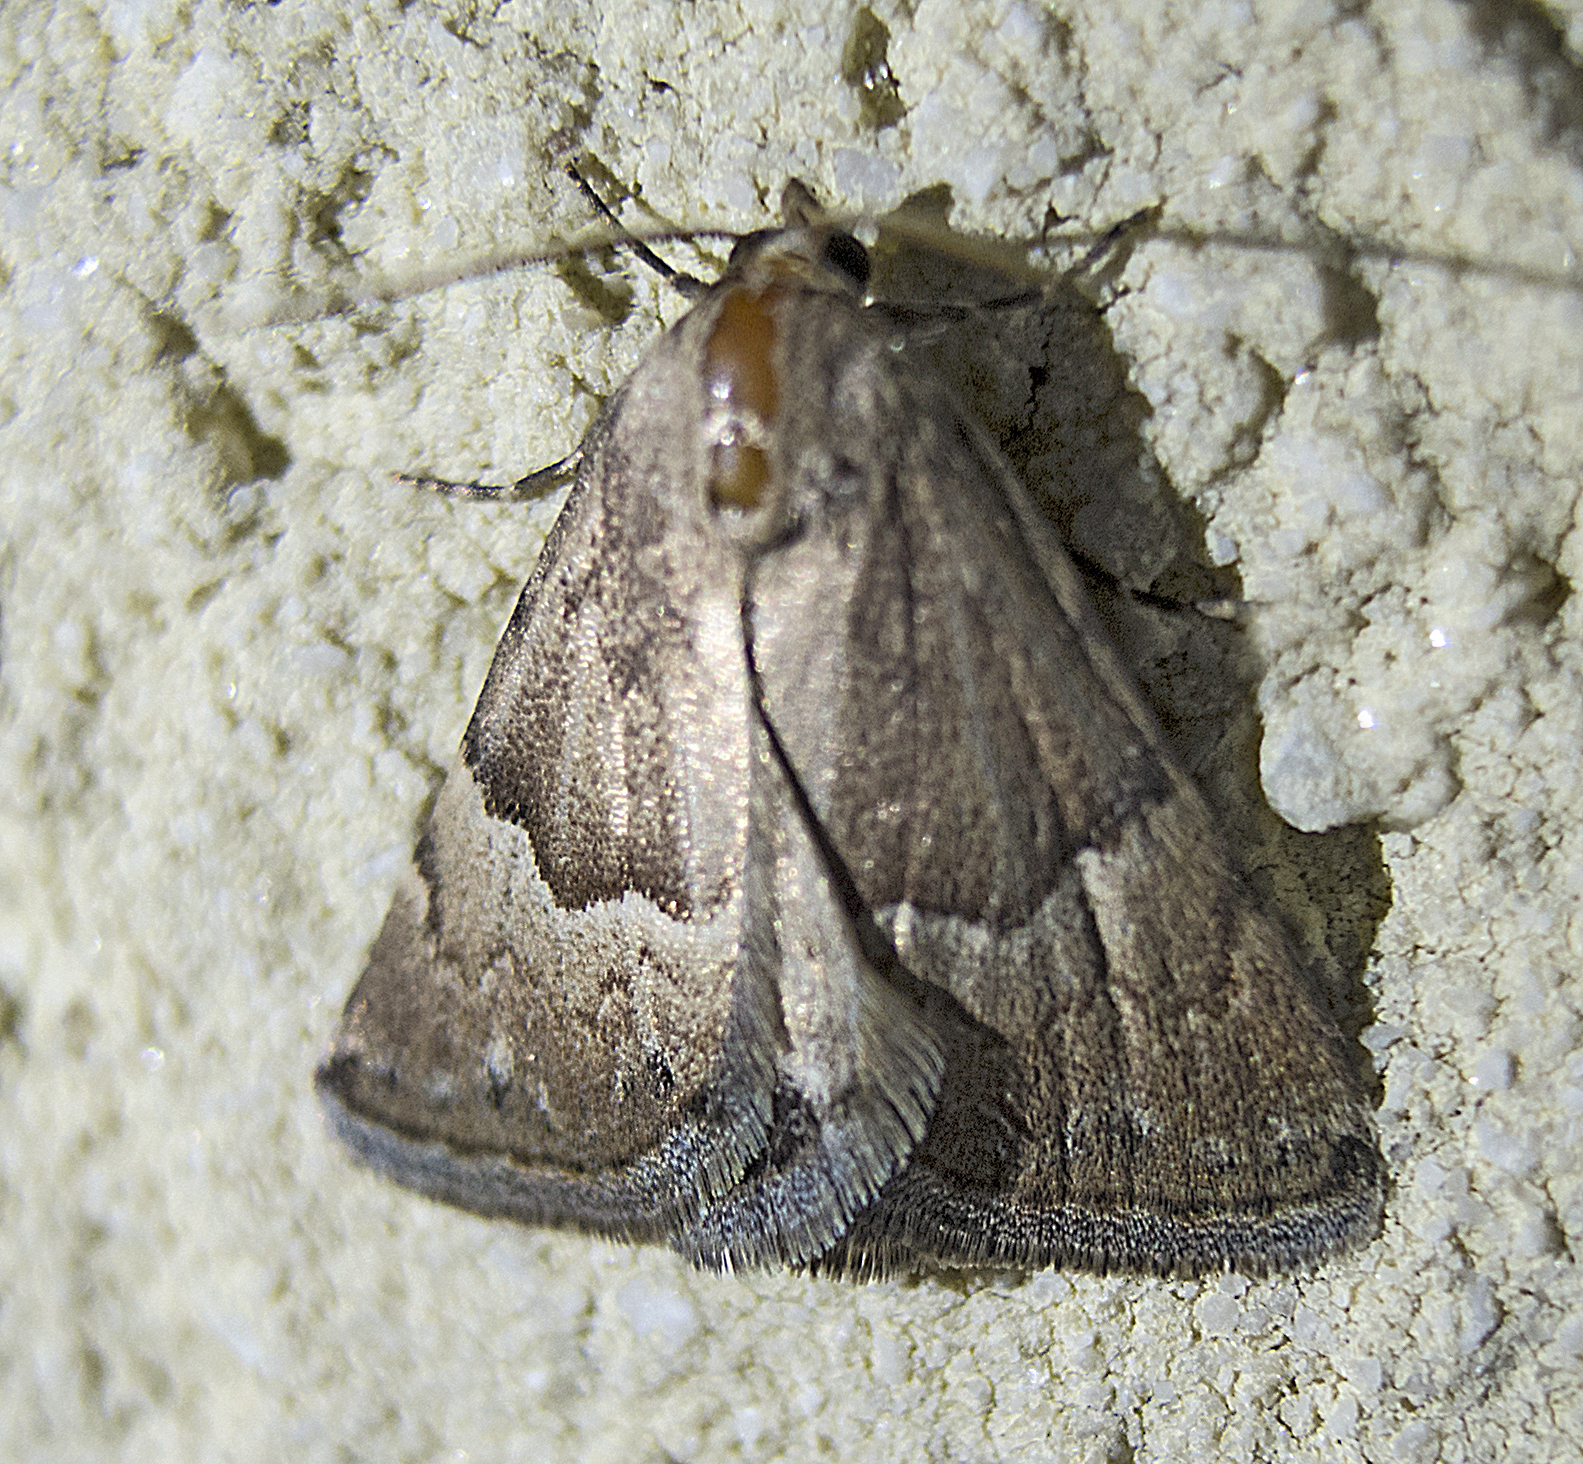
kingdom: Animalia
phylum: Arthropoda
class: Insecta
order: Lepidoptera
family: Noctuidae
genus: Eublemma
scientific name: Eublemma arcuinna
